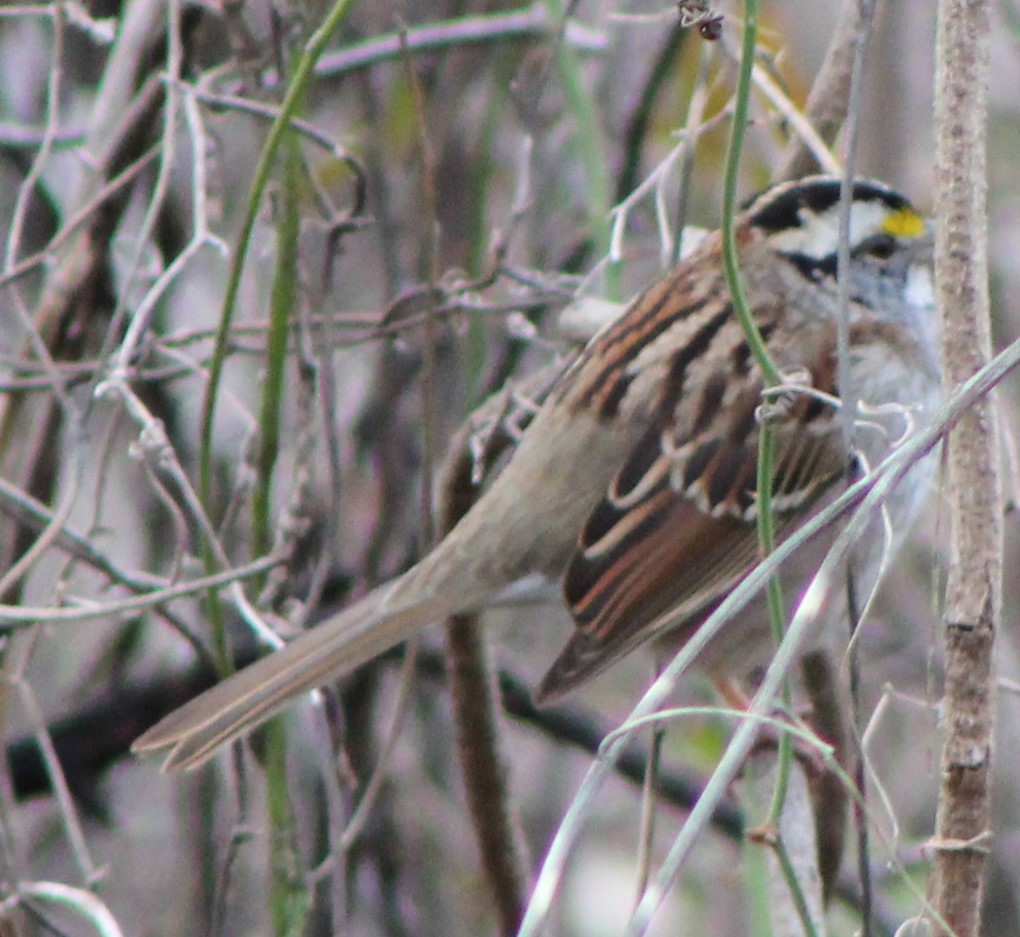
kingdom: Animalia
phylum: Chordata
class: Aves
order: Passeriformes
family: Passerellidae
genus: Zonotrichia
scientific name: Zonotrichia albicollis
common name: White-throated sparrow
